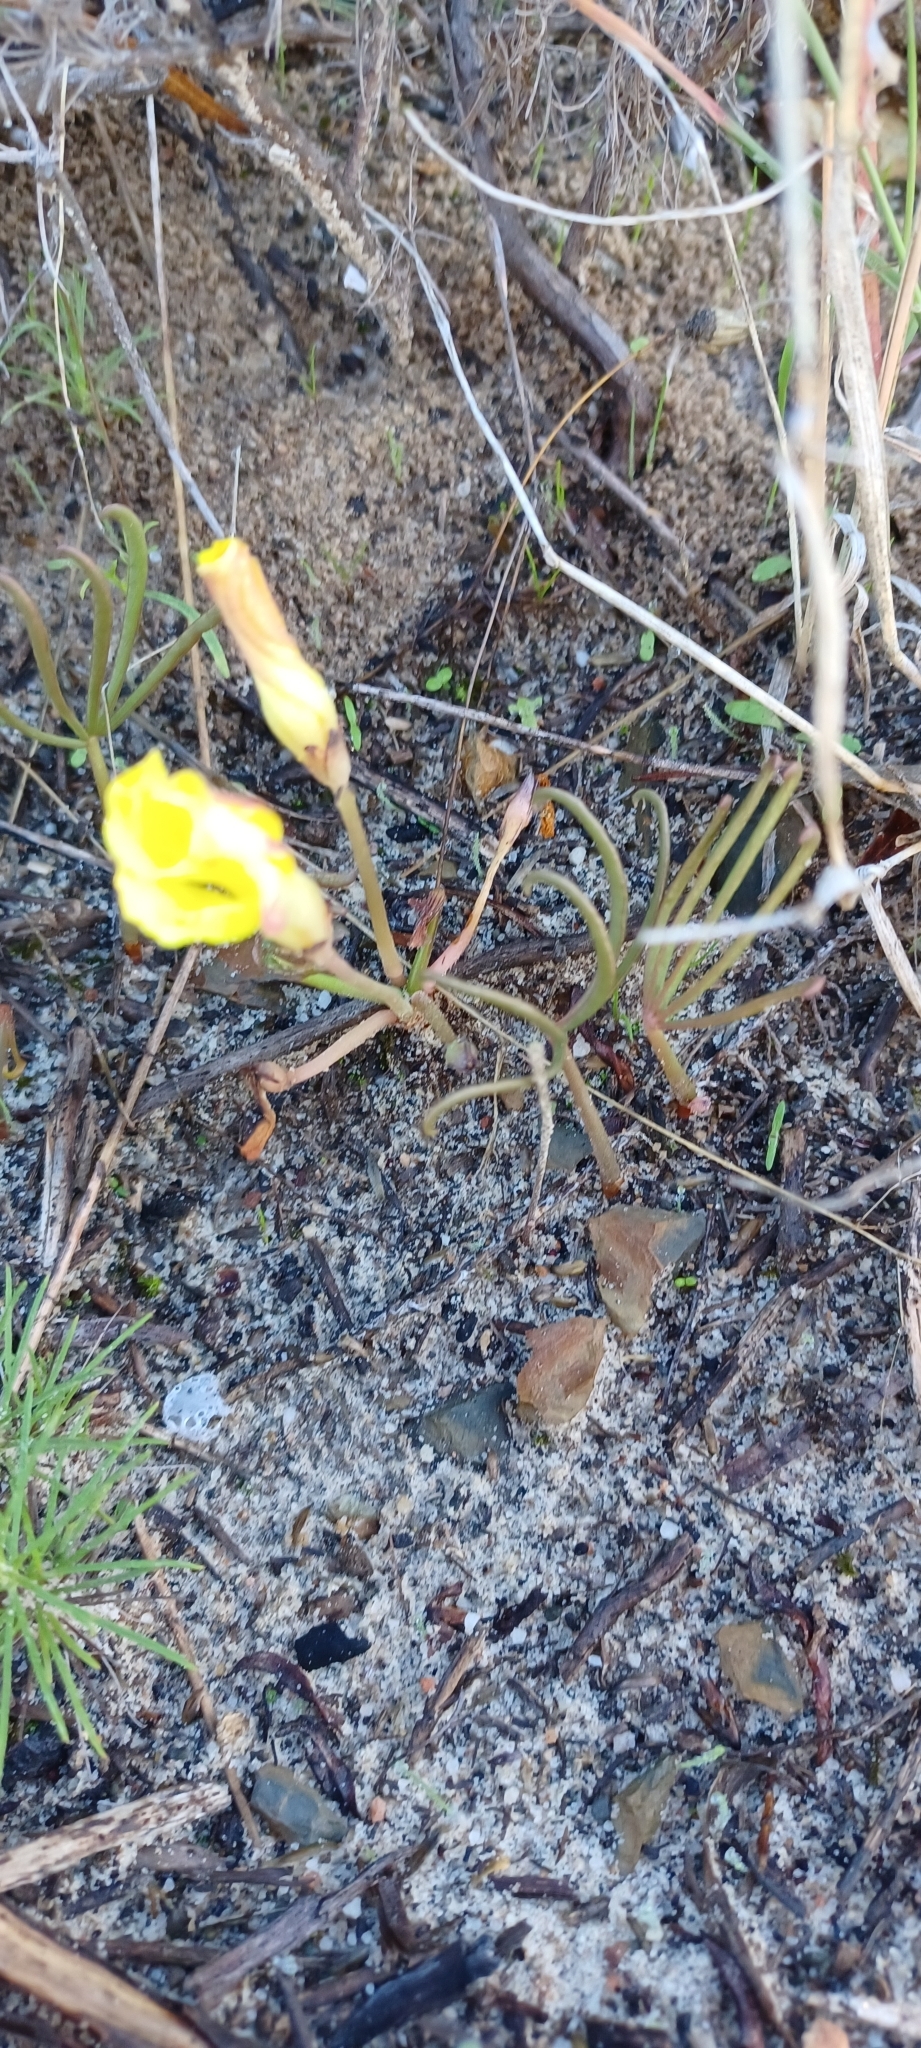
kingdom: Plantae
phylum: Tracheophyta
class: Magnoliopsida
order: Oxalidales
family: Oxalidaceae
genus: Oxalis
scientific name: Oxalis flava
